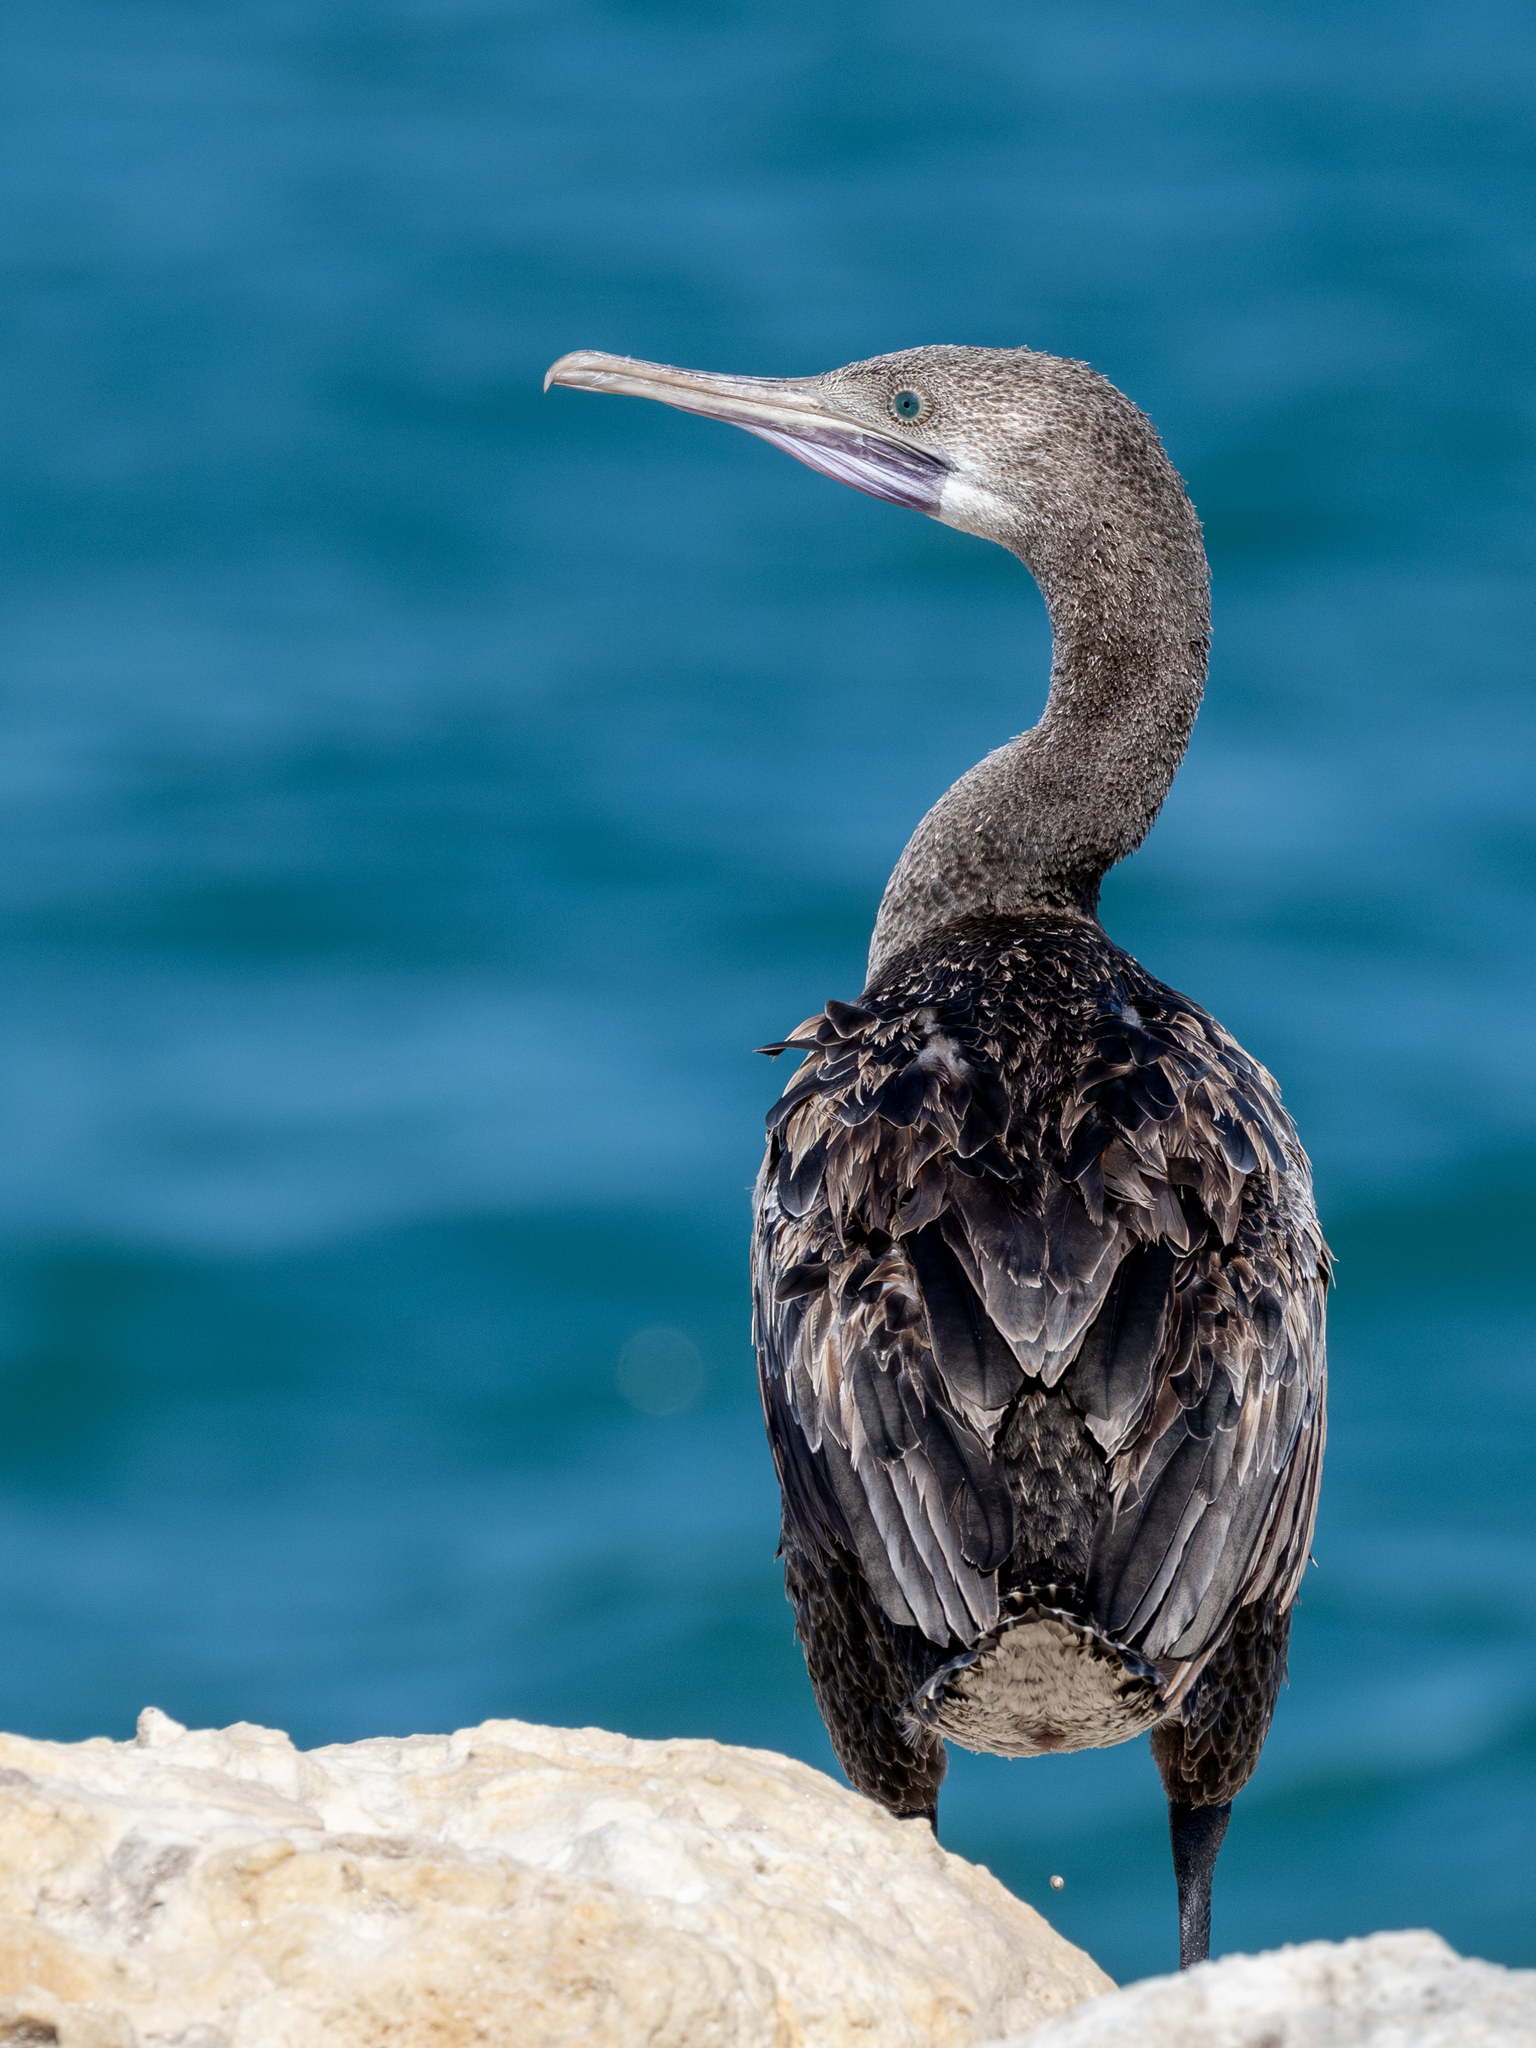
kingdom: Animalia
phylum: Chordata
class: Aves
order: Suliformes
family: Phalacrocoracidae
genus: Phalacrocorax
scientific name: Phalacrocorax nigrogularis
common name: Socotra cormorant
